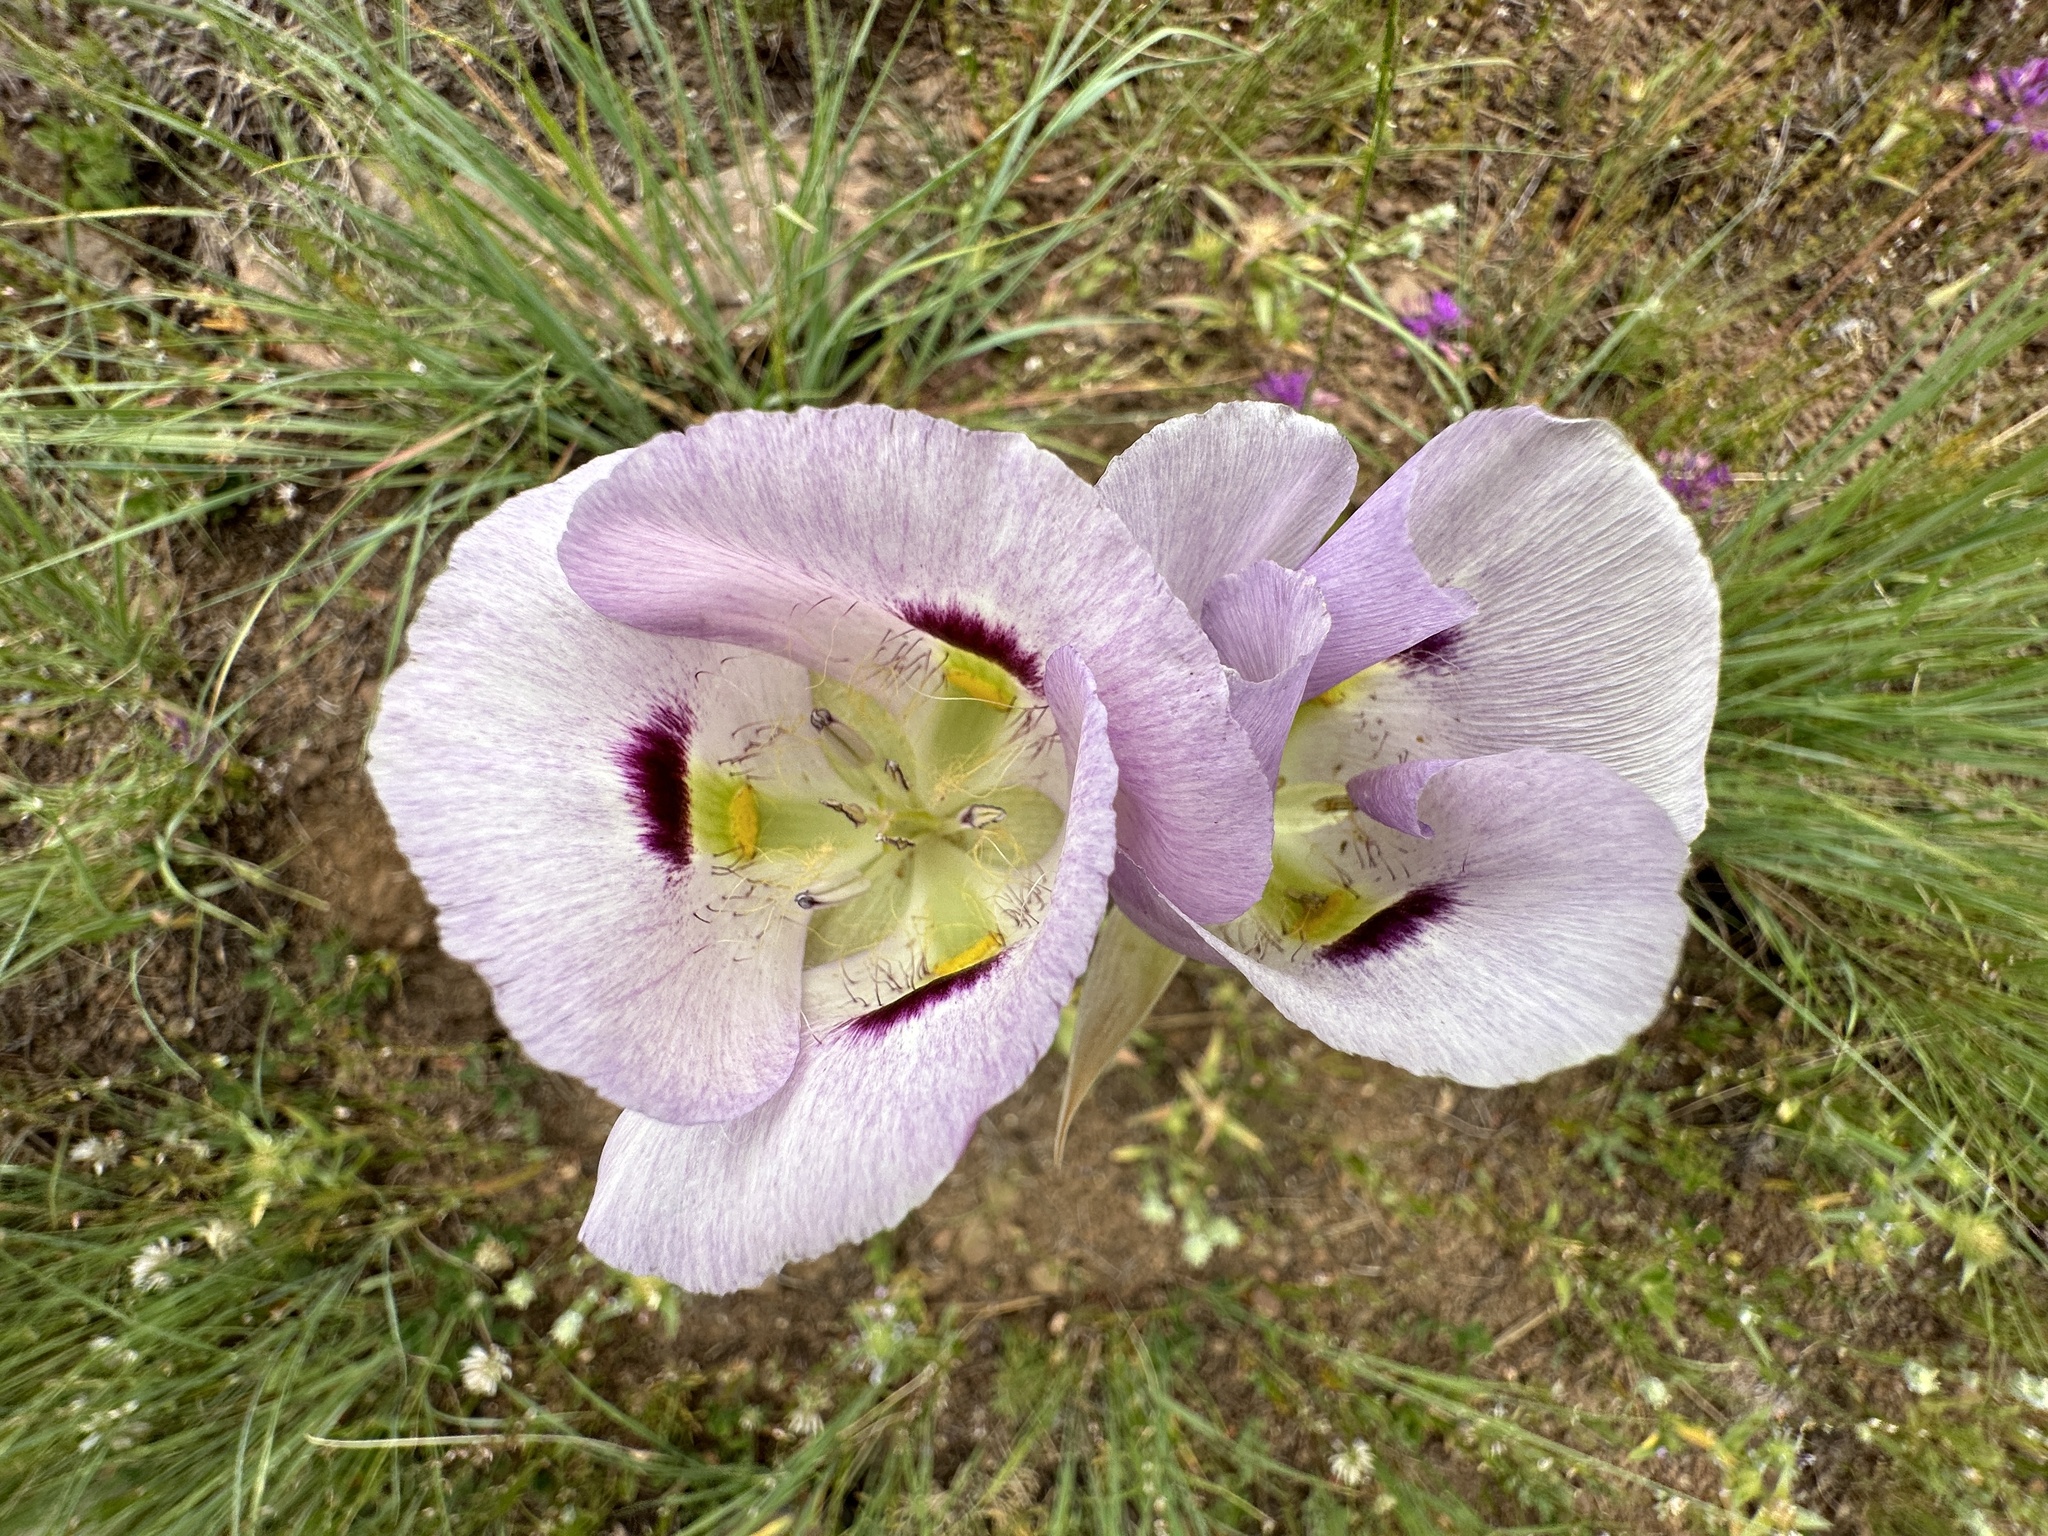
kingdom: Plantae
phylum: Tracheophyta
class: Liliopsida
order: Liliales
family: Liliaceae
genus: Calochortus
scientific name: Calochortus eurycarpus
